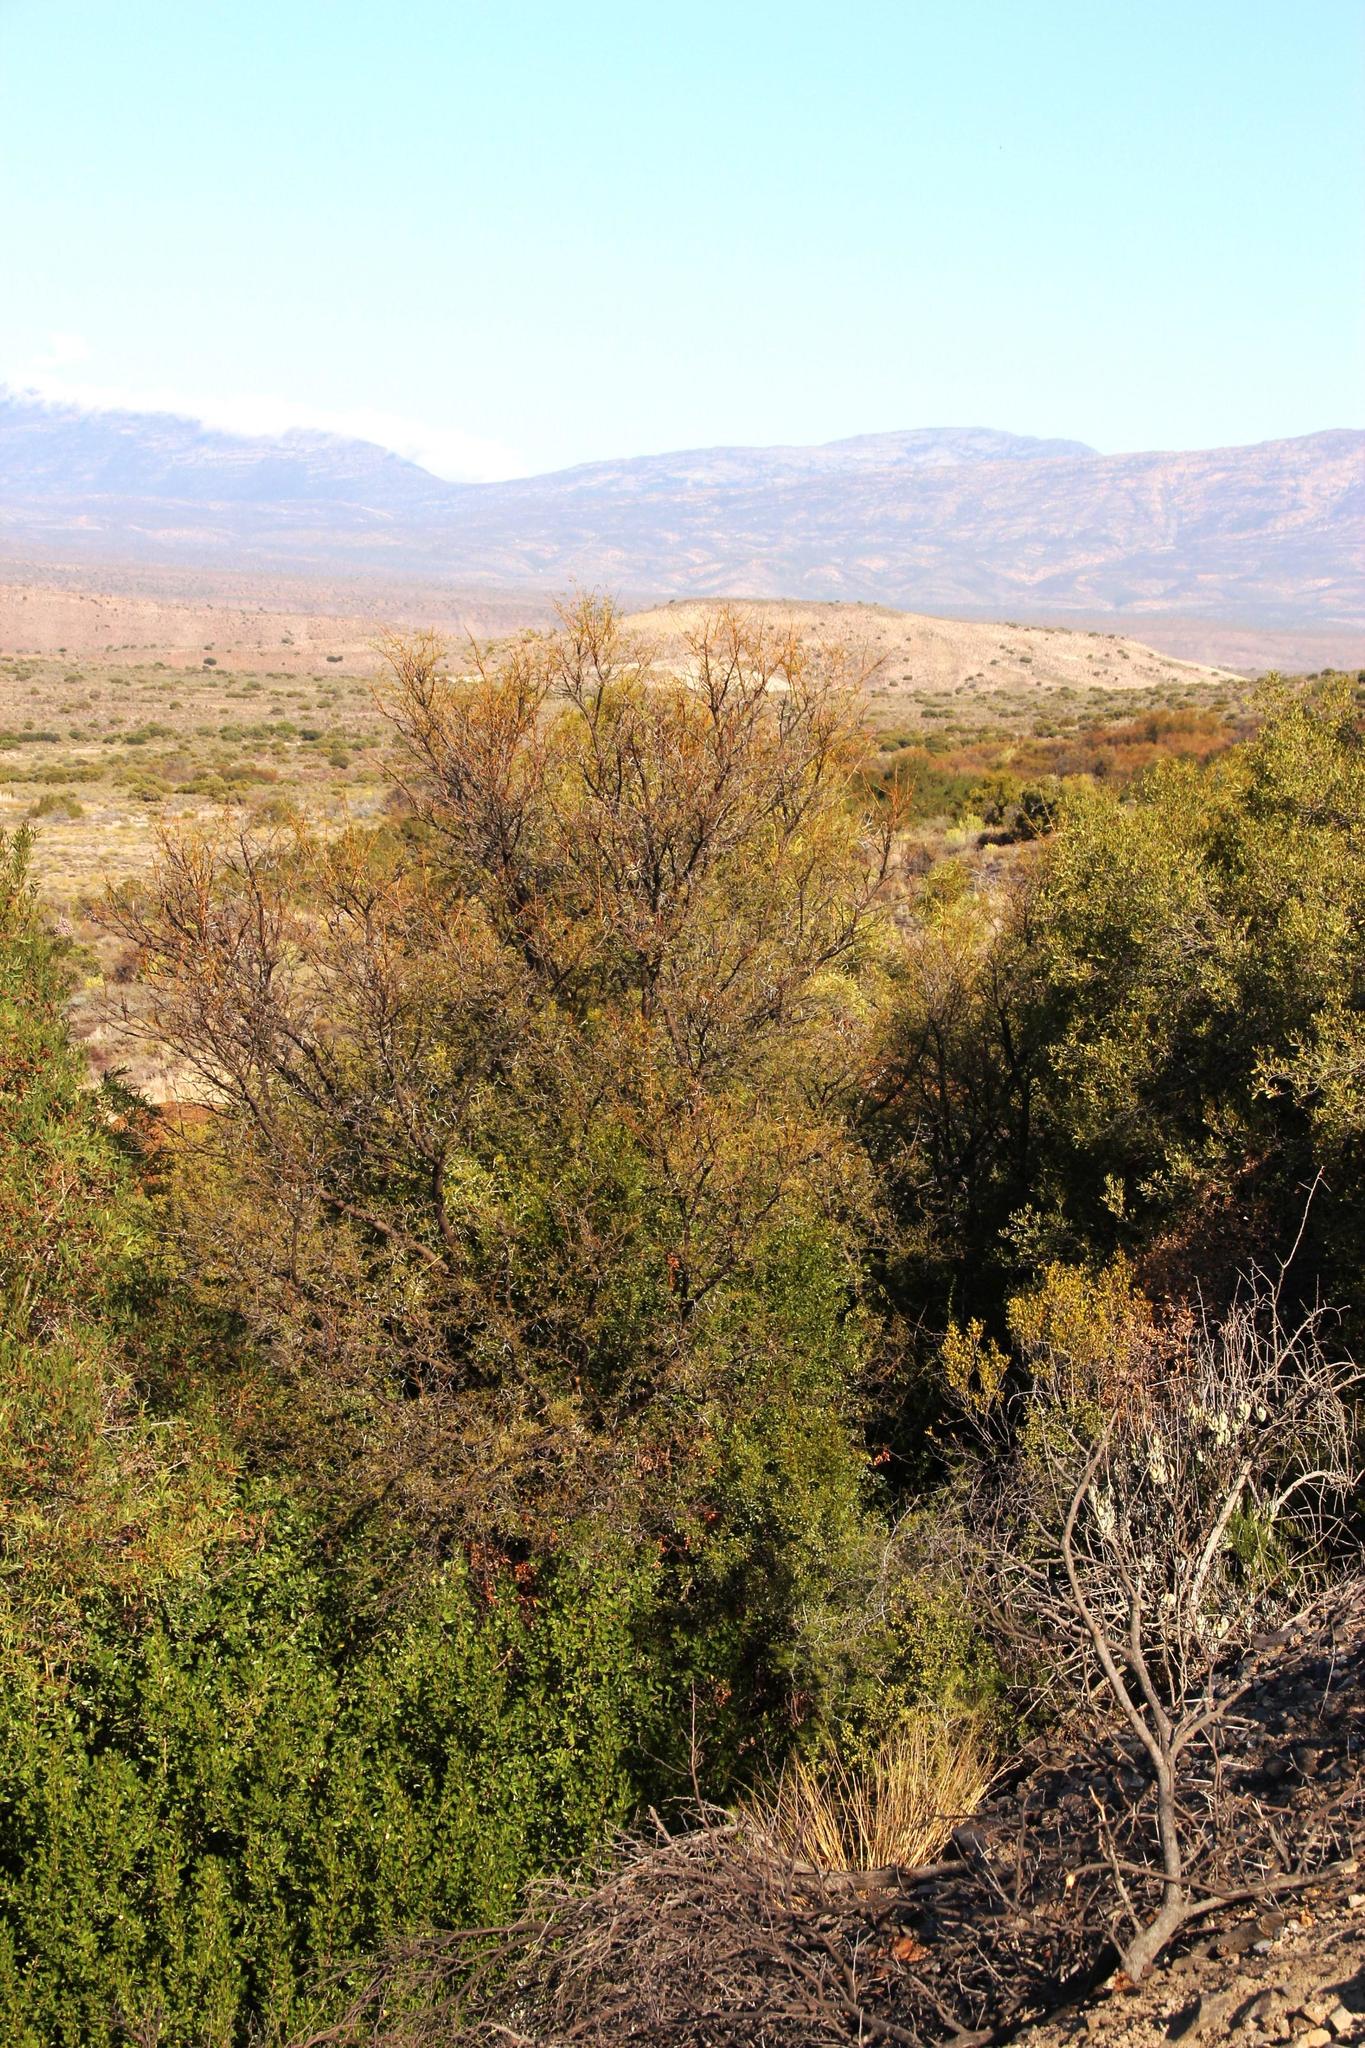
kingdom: Plantae
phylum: Tracheophyta
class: Magnoliopsida
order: Fabales
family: Fabaceae
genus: Vachellia
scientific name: Vachellia karroo
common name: Sweet thorn
